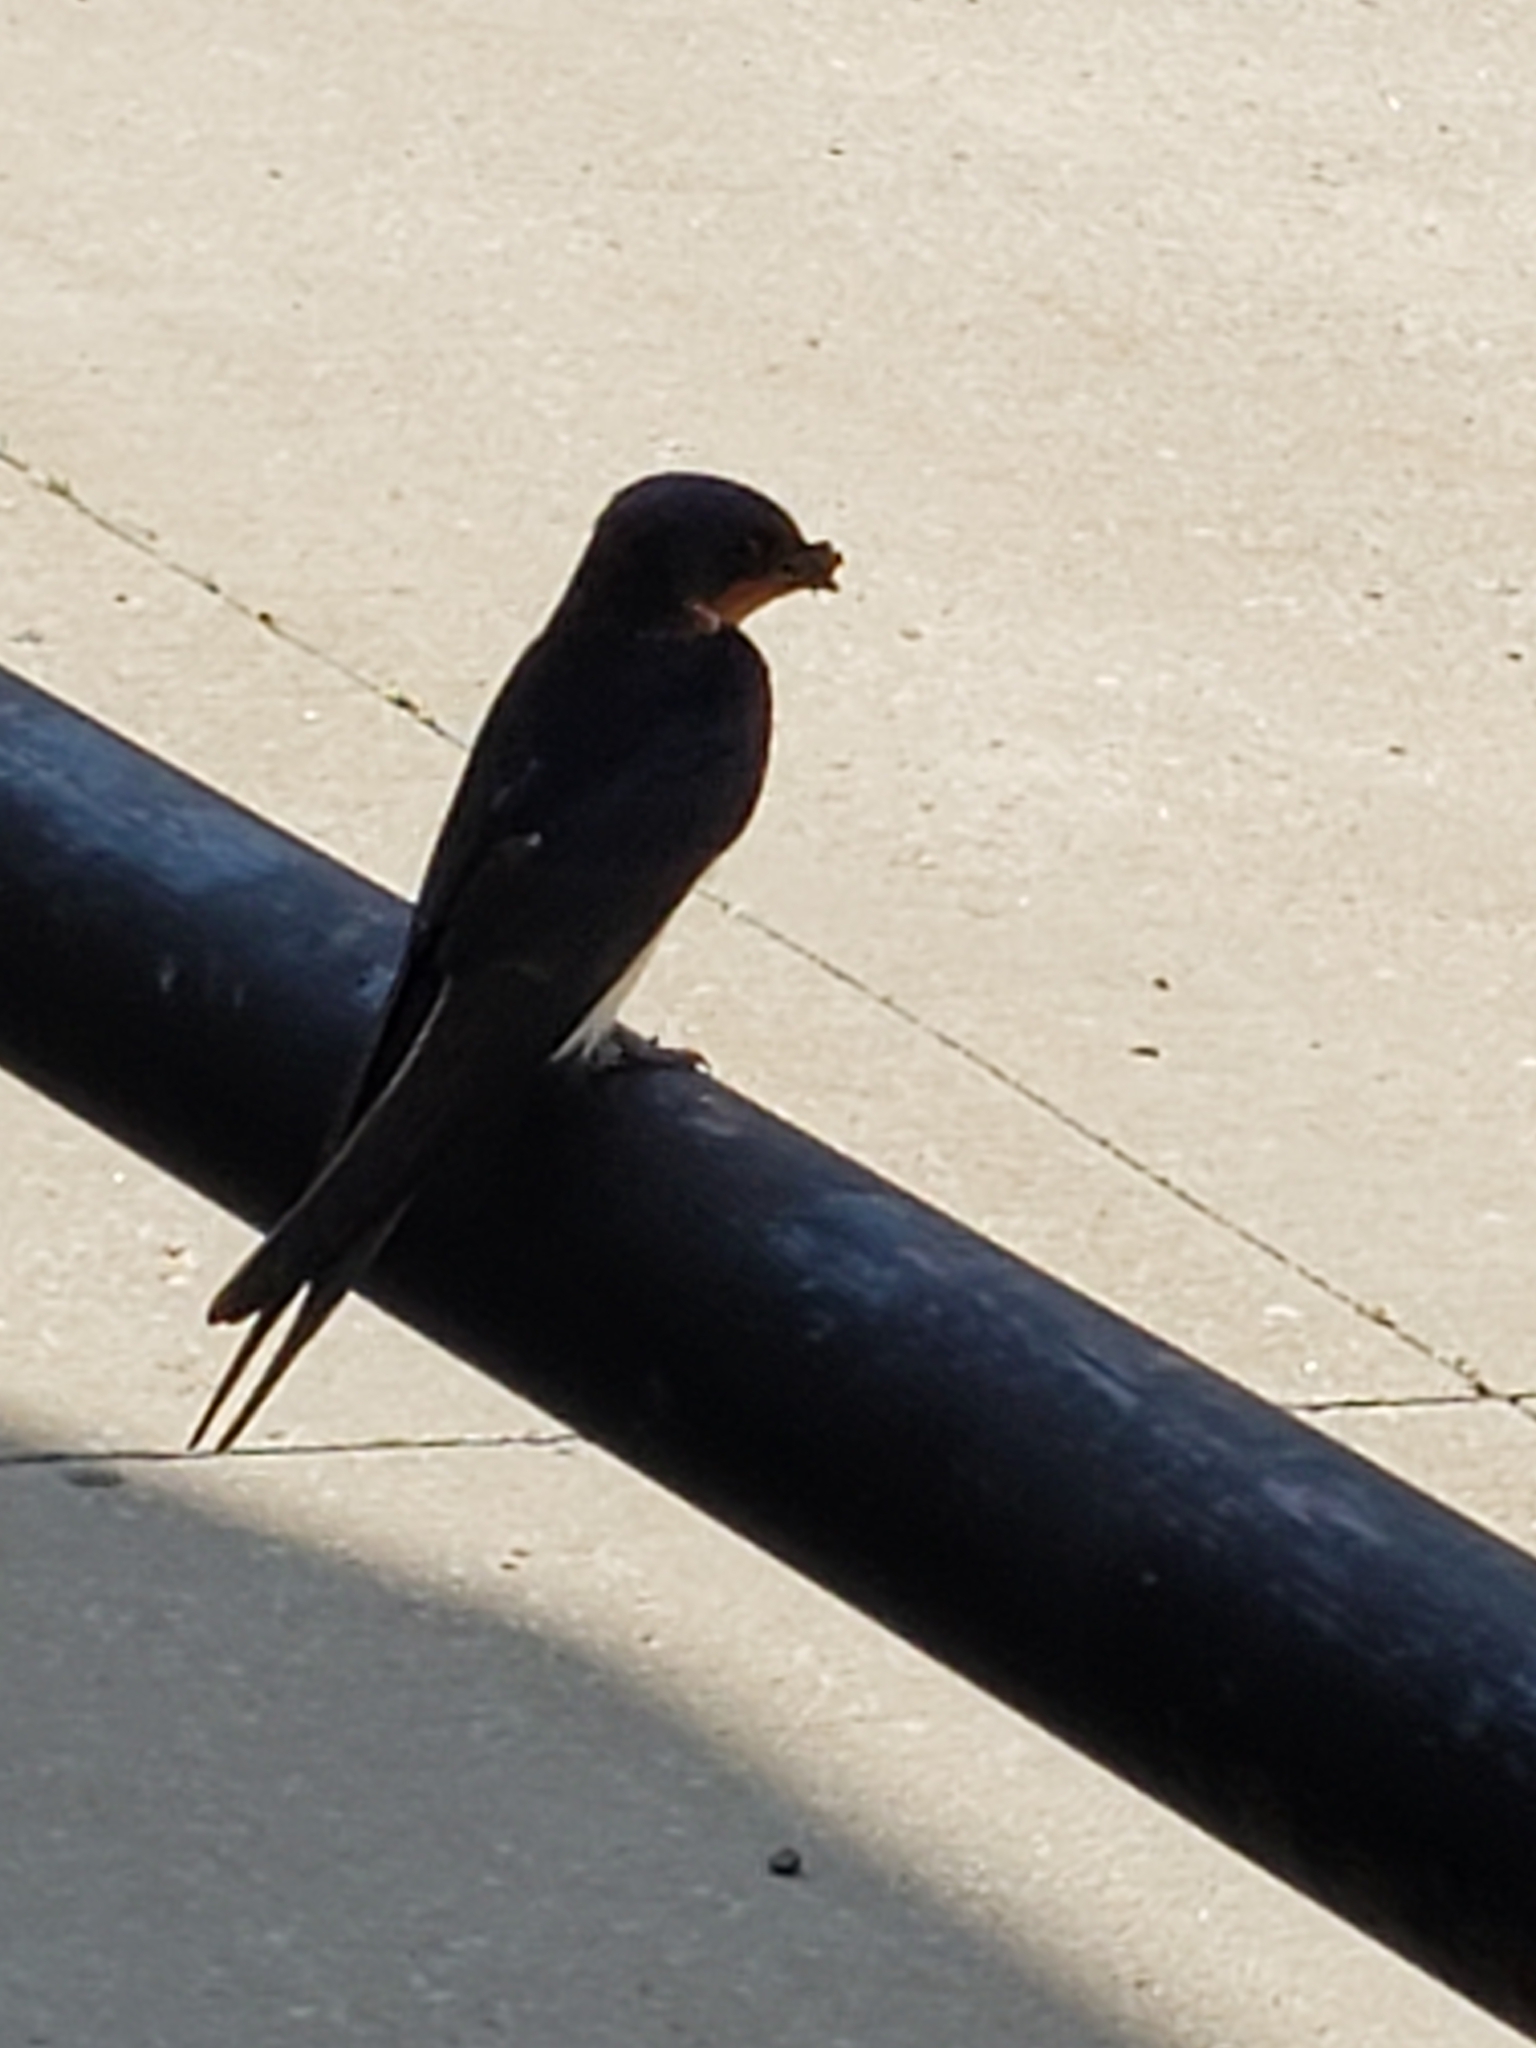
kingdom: Animalia
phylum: Chordata
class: Aves
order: Passeriformes
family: Hirundinidae
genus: Hirundo
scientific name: Hirundo rustica
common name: Barn swallow
